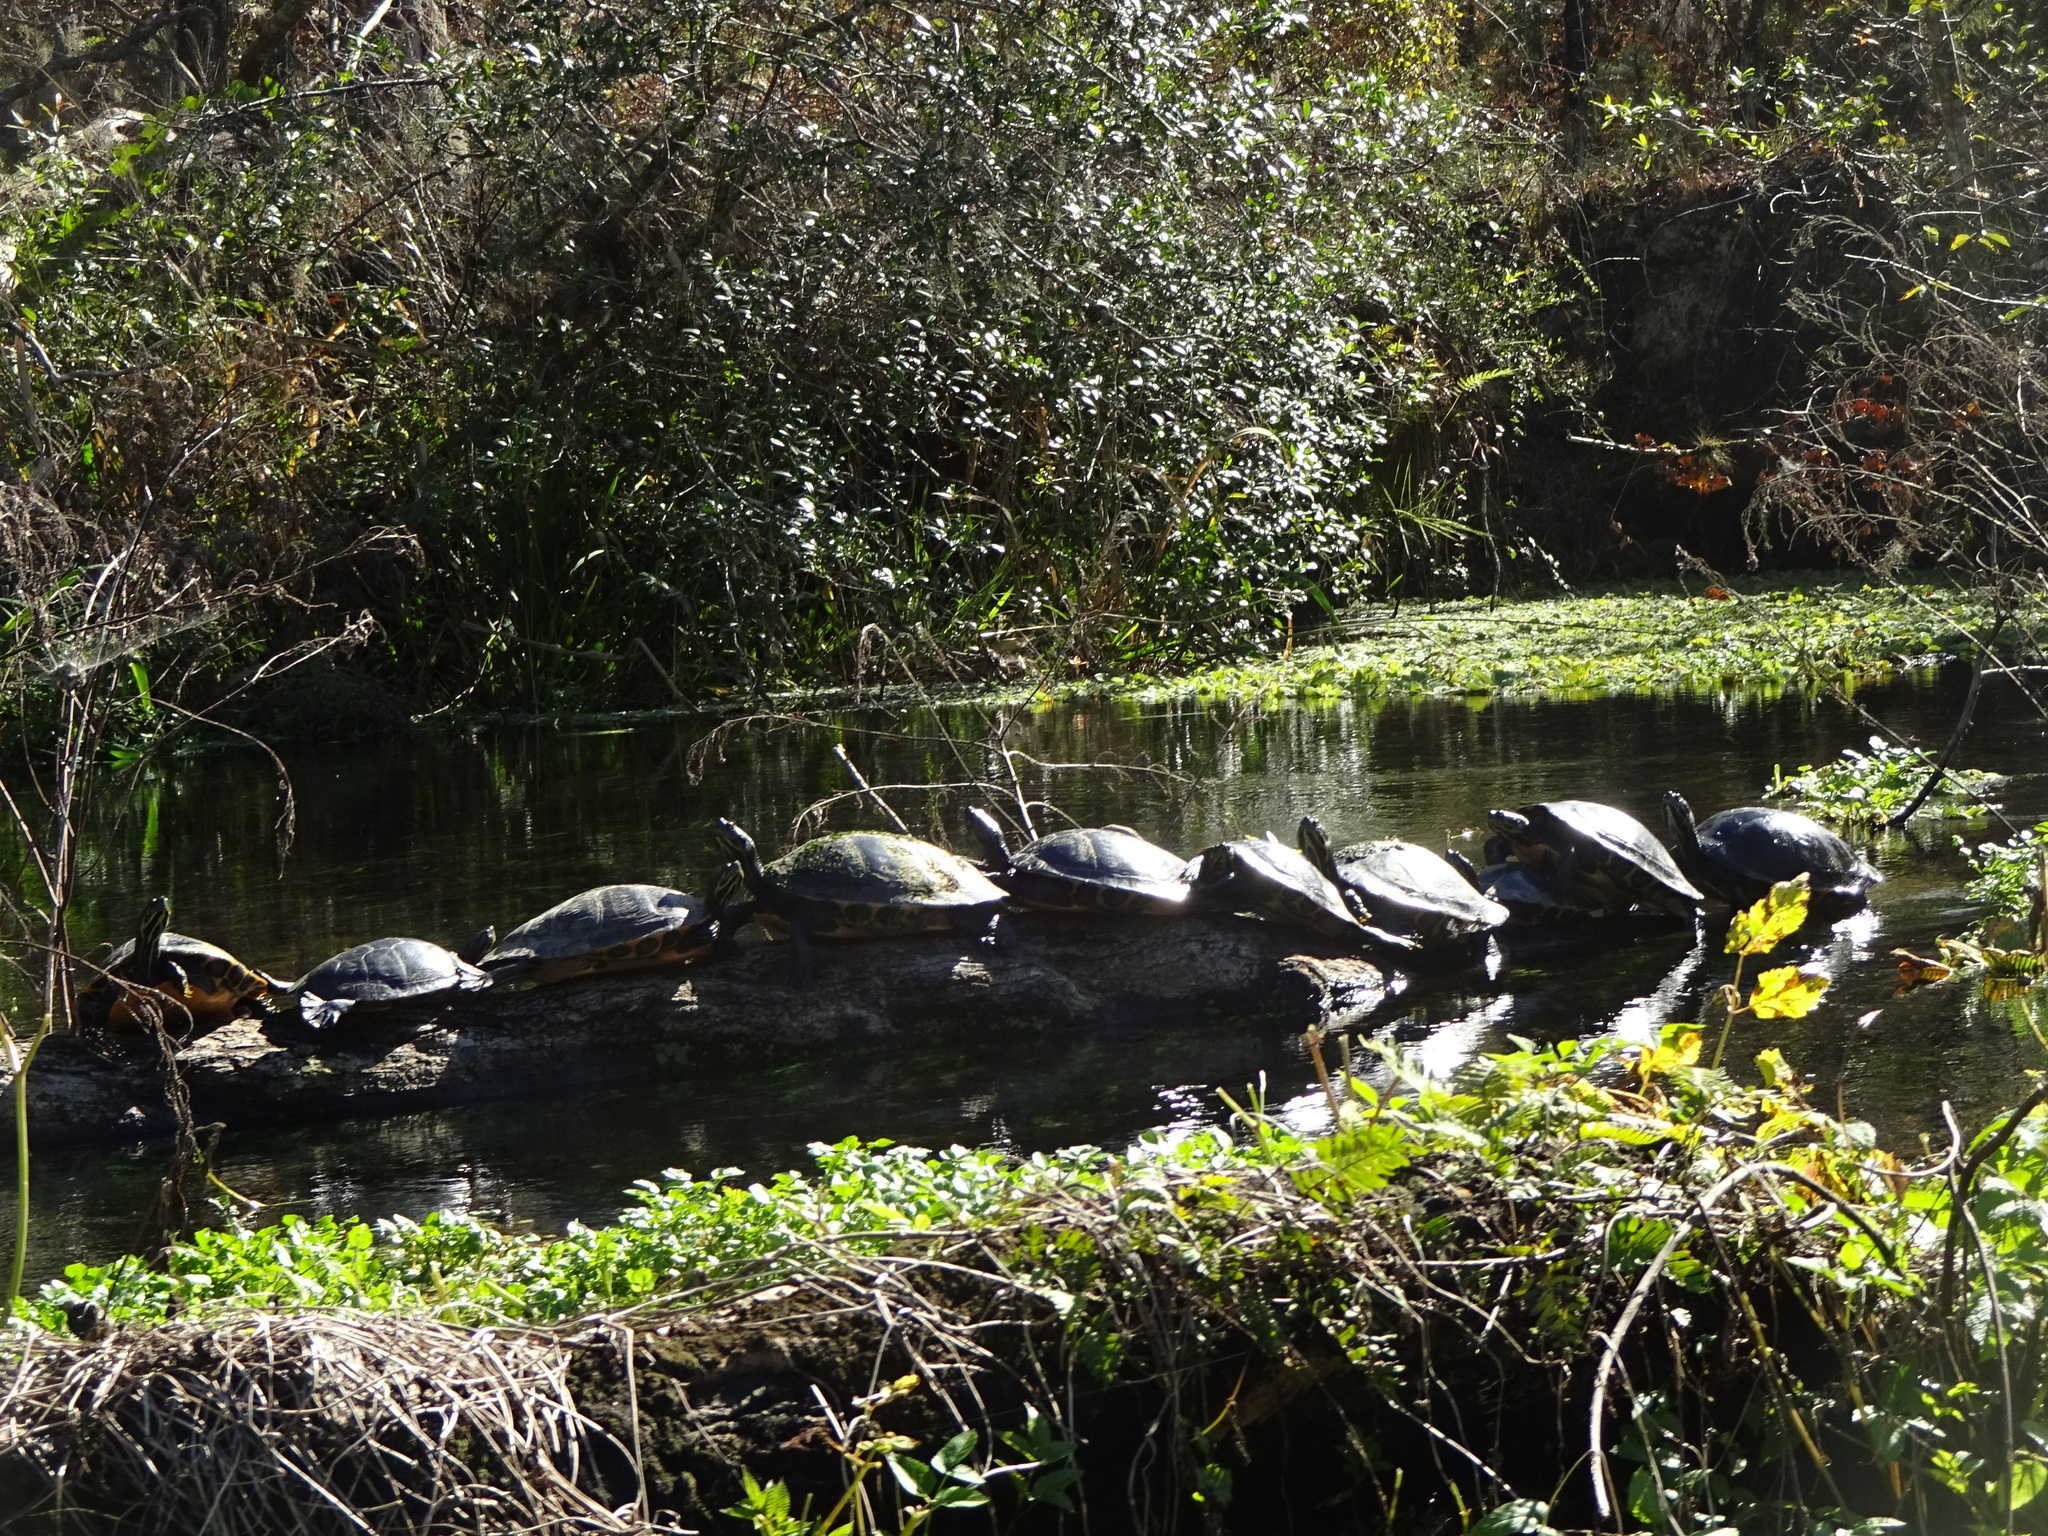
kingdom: Animalia
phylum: Chordata
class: Testudines
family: Emydidae
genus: Pseudemys
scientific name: Pseudemys concinna
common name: Eastern river cooter
